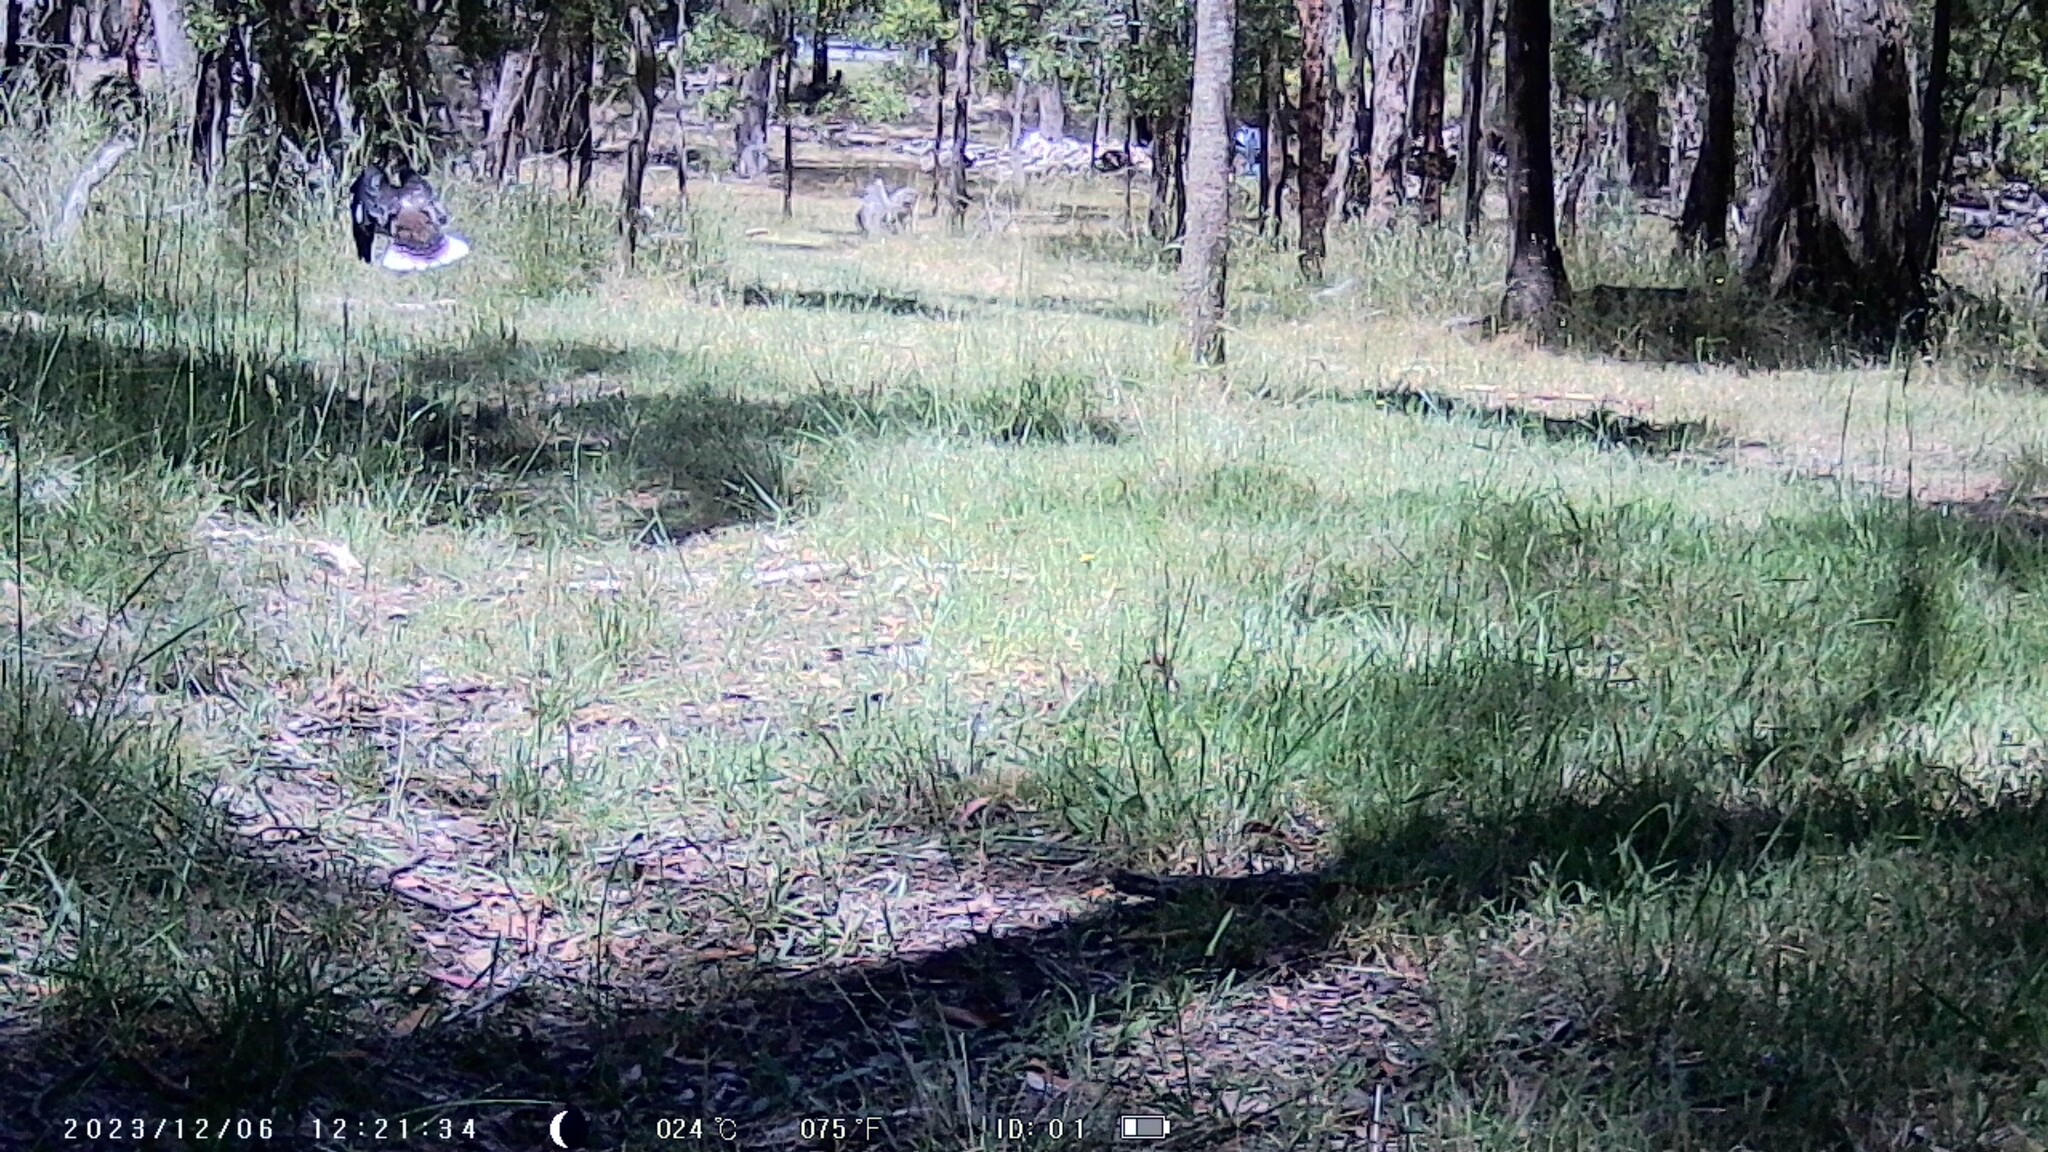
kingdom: Animalia
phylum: Chordata
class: Aves
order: Coraciiformes
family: Alcedinidae
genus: Dacelo
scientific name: Dacelo novaeguineae
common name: Laughing kookaburra
